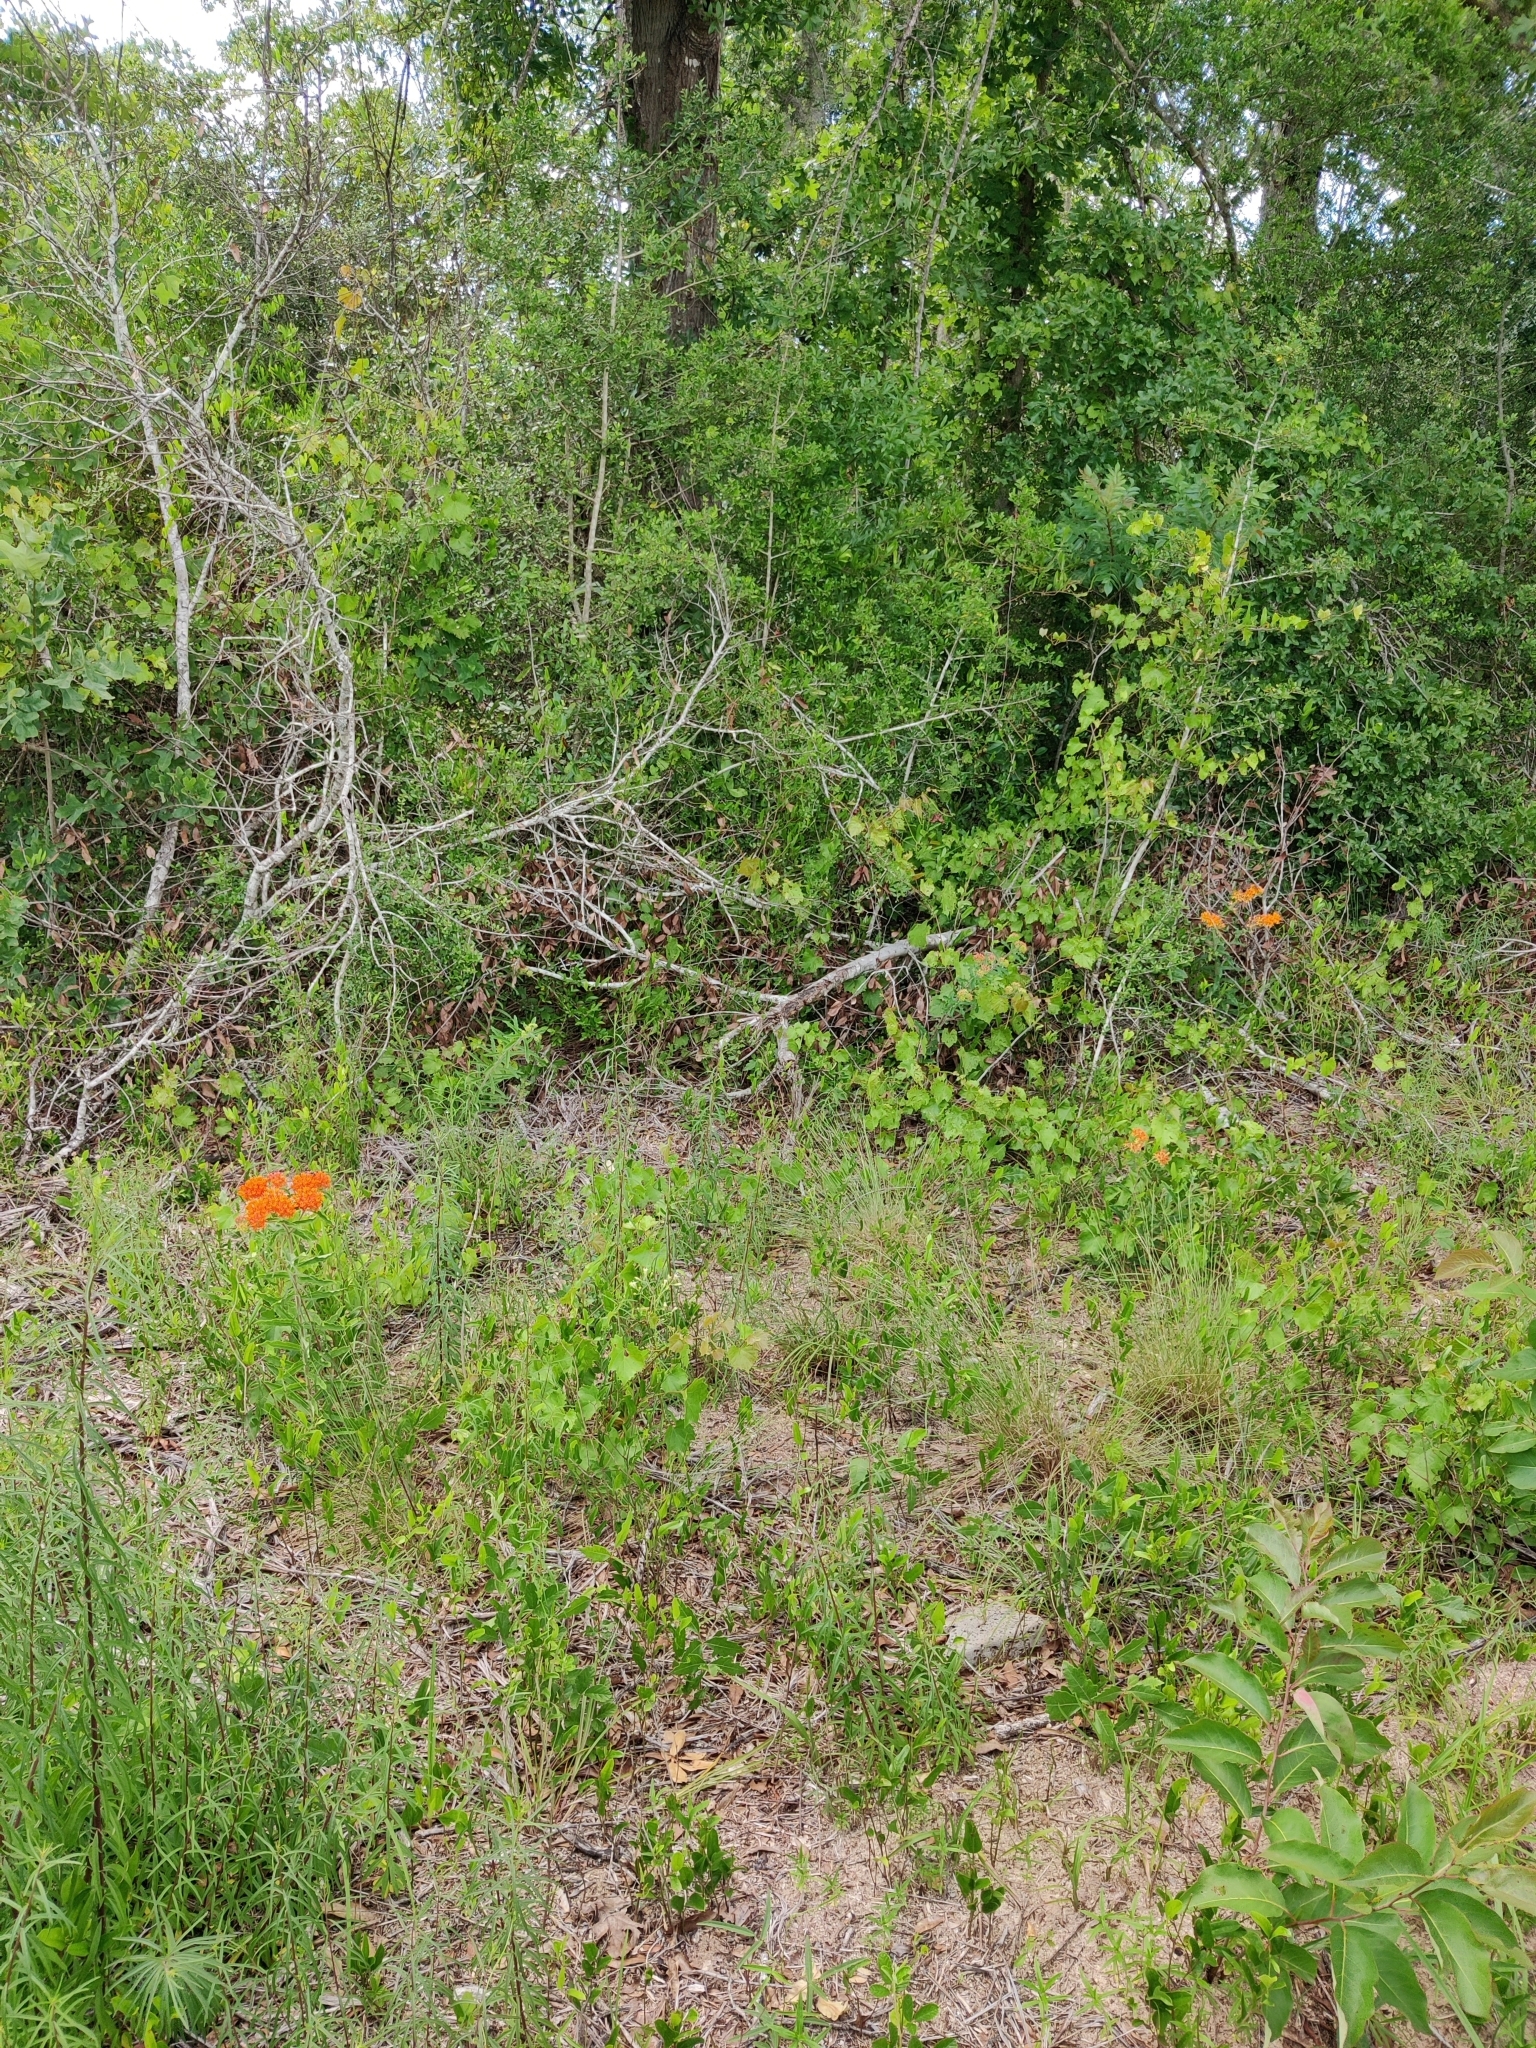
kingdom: Plantae
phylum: Tracheophyta
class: Magnoliopsida
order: Gentianales
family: Apocynaceae
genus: Asclepias
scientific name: Asclepias tuberosa
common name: Butterfly milkweed
